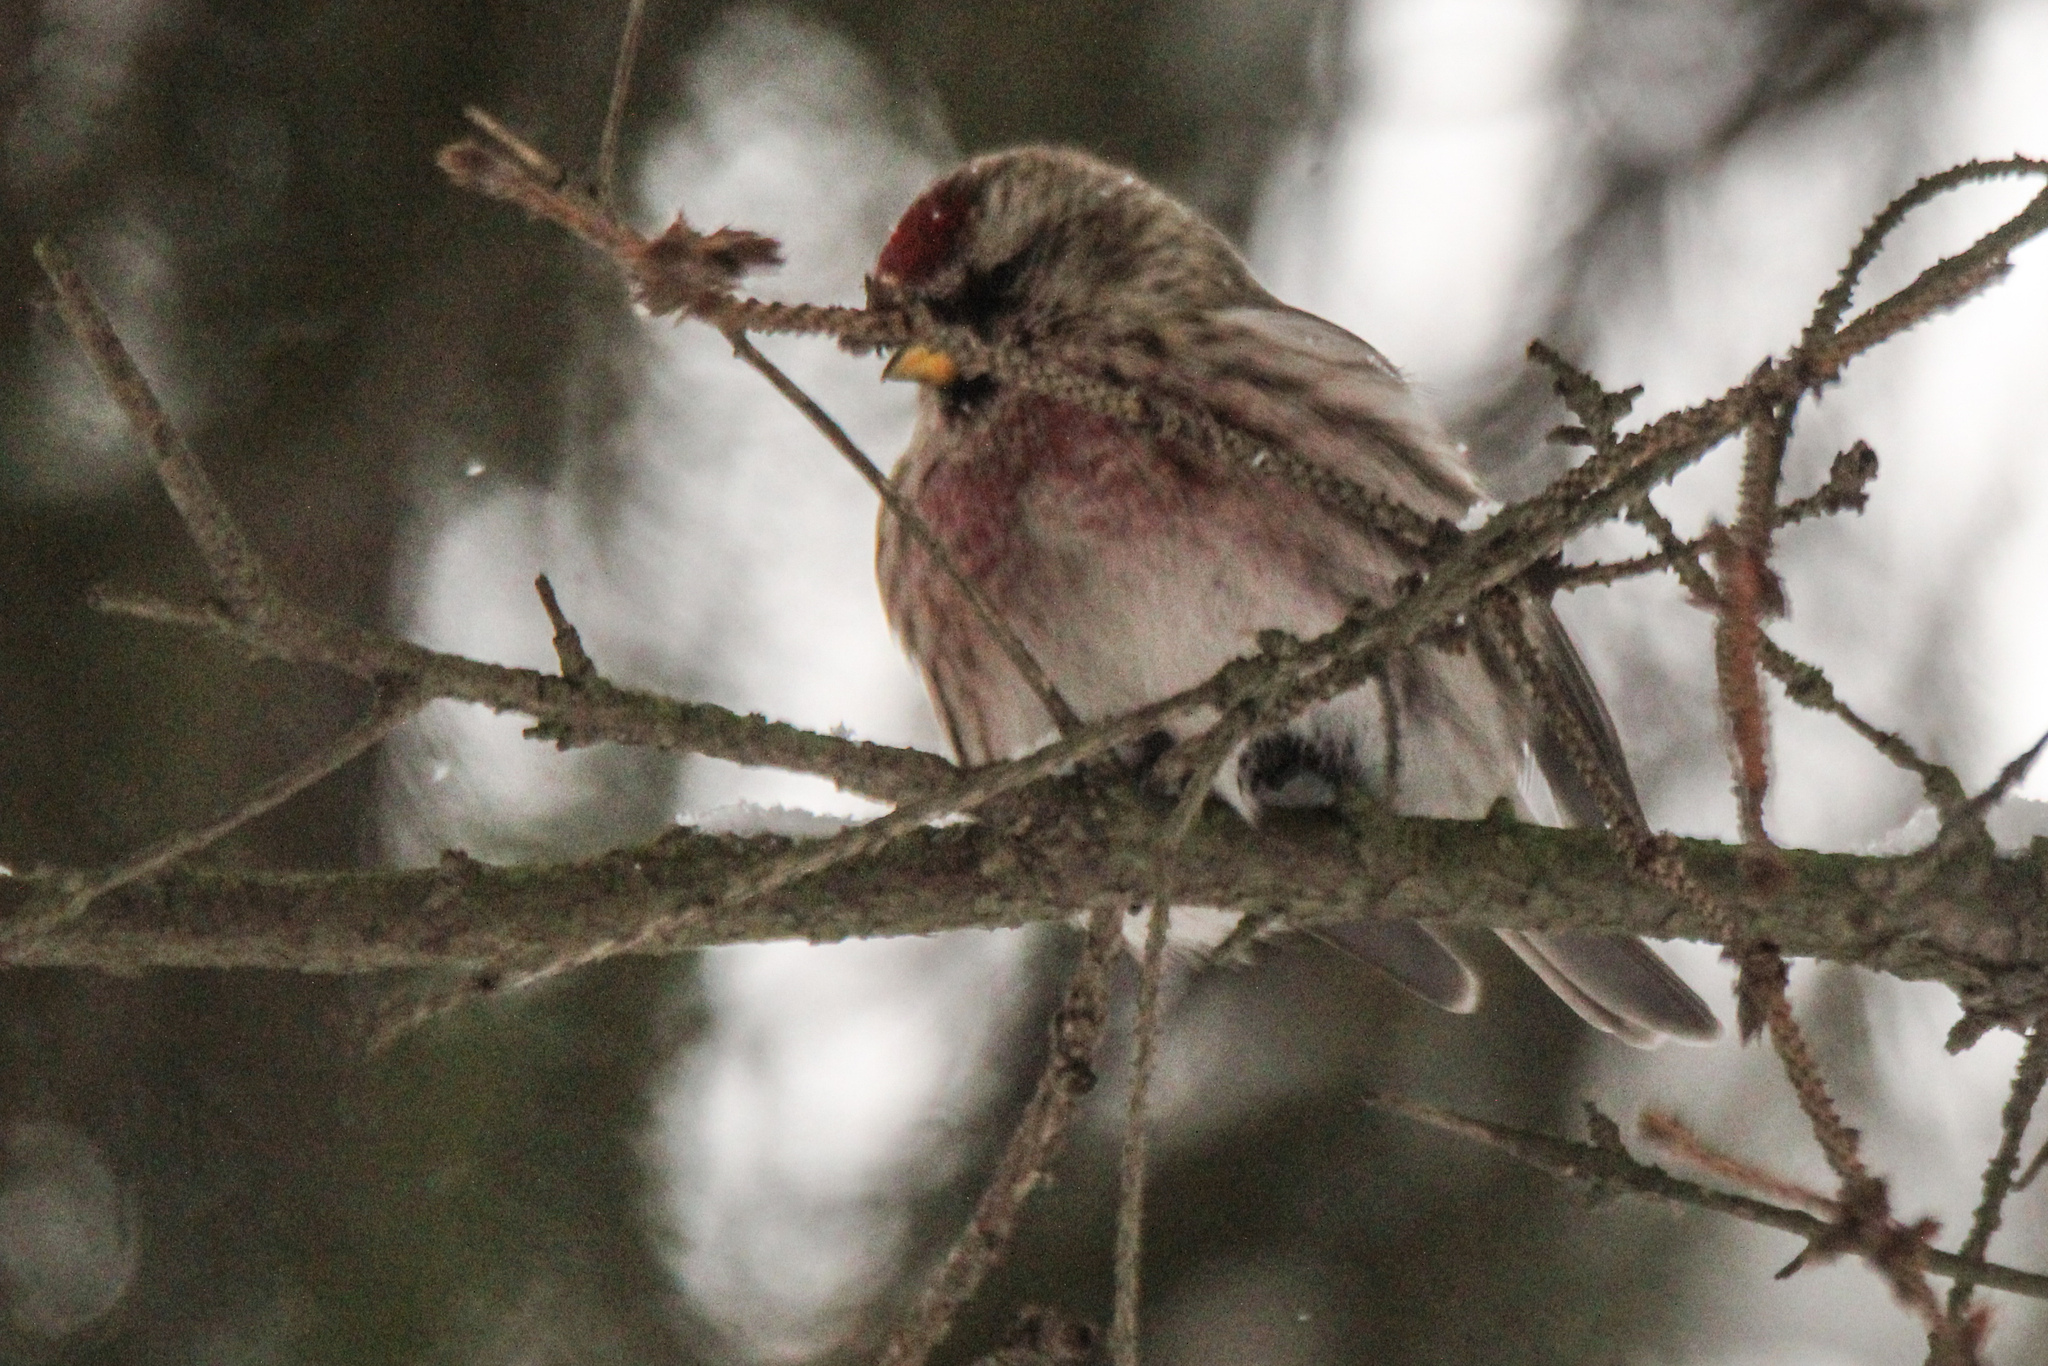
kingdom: Animalia
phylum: Chordata
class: Aves
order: Passeriformes
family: Fringillidae
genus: Acanthis
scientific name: Acanthis flammea
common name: Common redpoll
